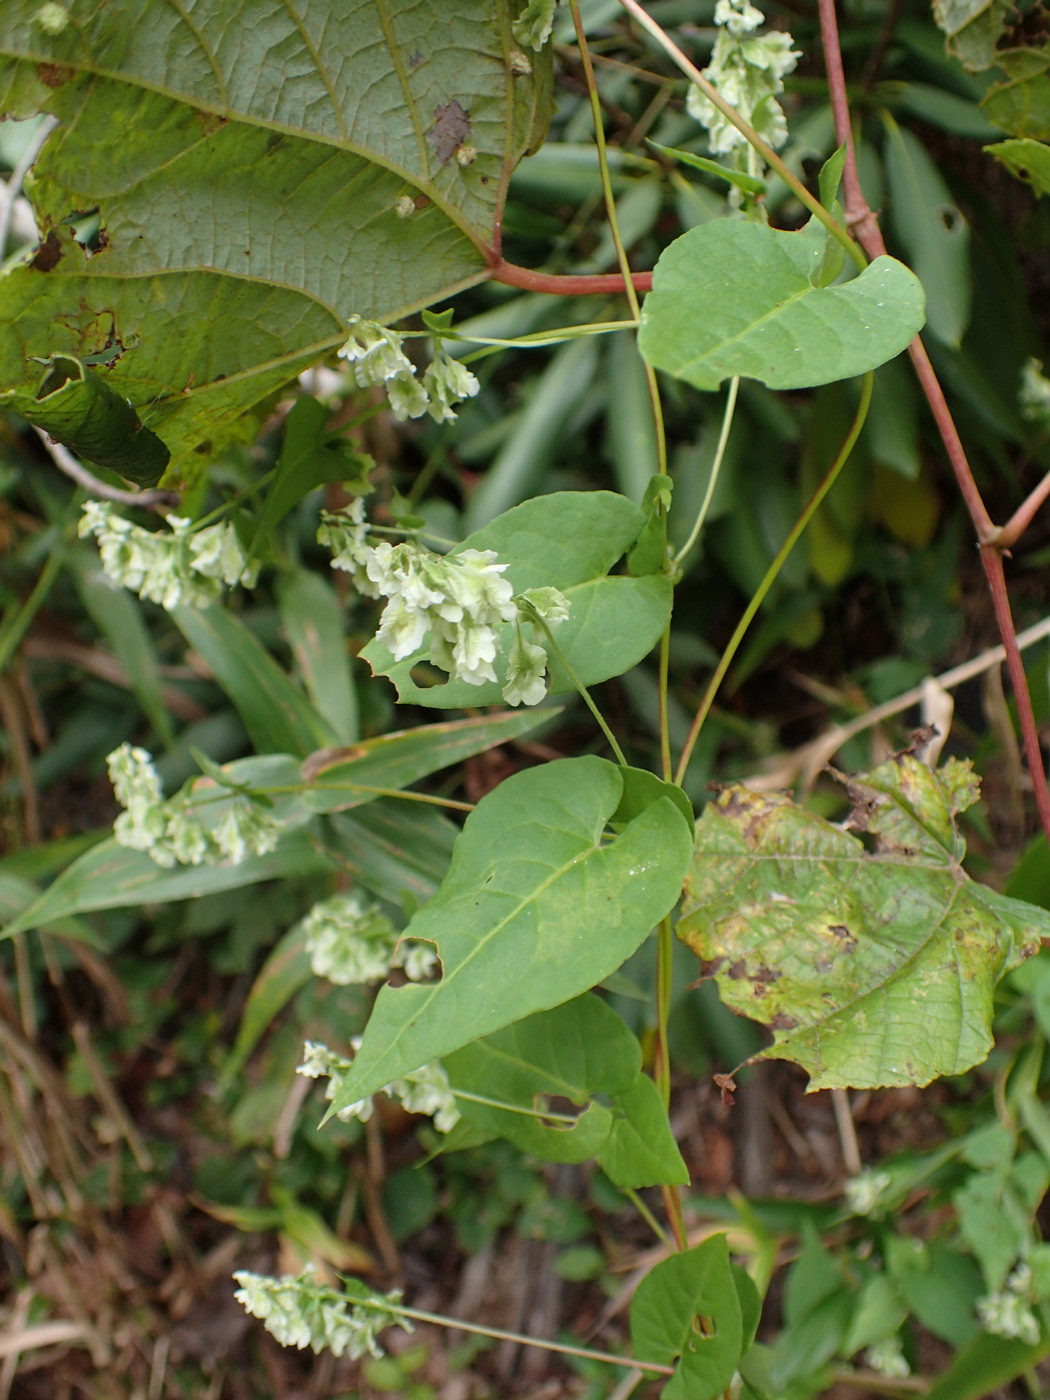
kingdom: Plantae
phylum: Tracheophyta
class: Magnoliopsida
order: Caryophyllales
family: Polygonaceae
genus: Fallopia
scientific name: Fallopia scandens
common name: Climbing false buckwheat
